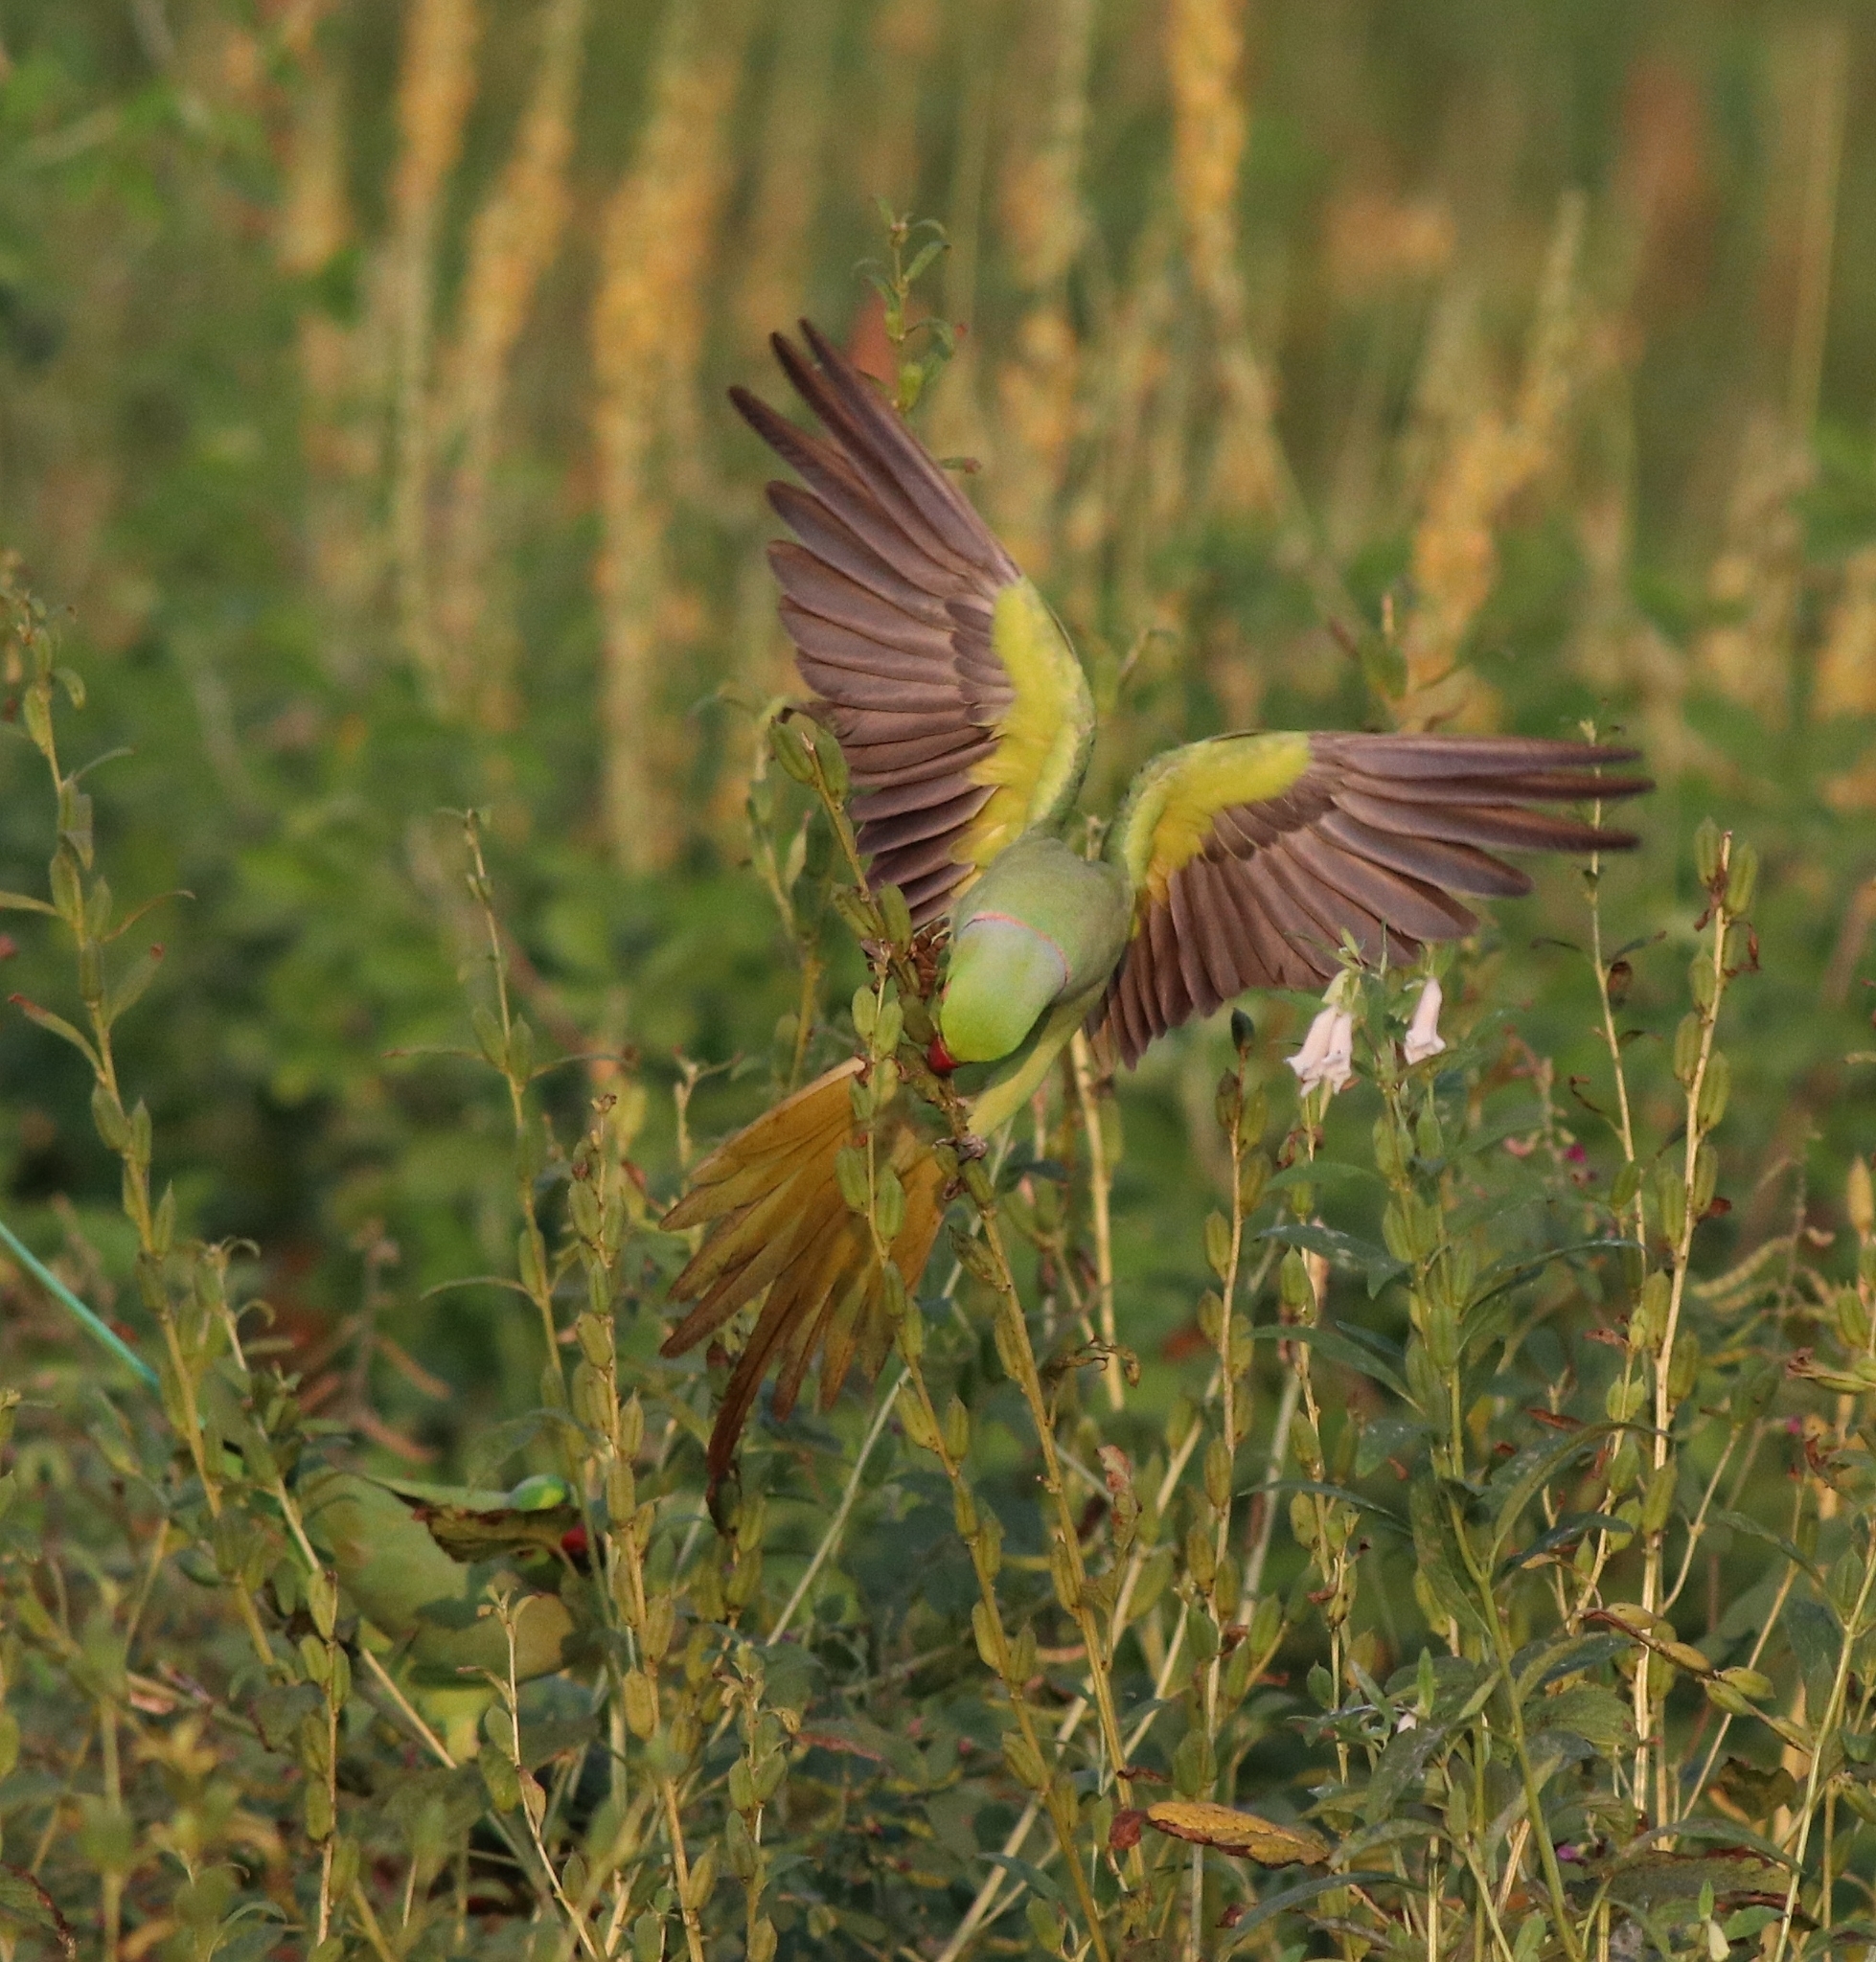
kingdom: Animalia
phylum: Chordata
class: Aves
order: Psittaciformes
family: Psittacidae
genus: Psittacula
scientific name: Psittacula krameri
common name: Rose-ringed parakeet
